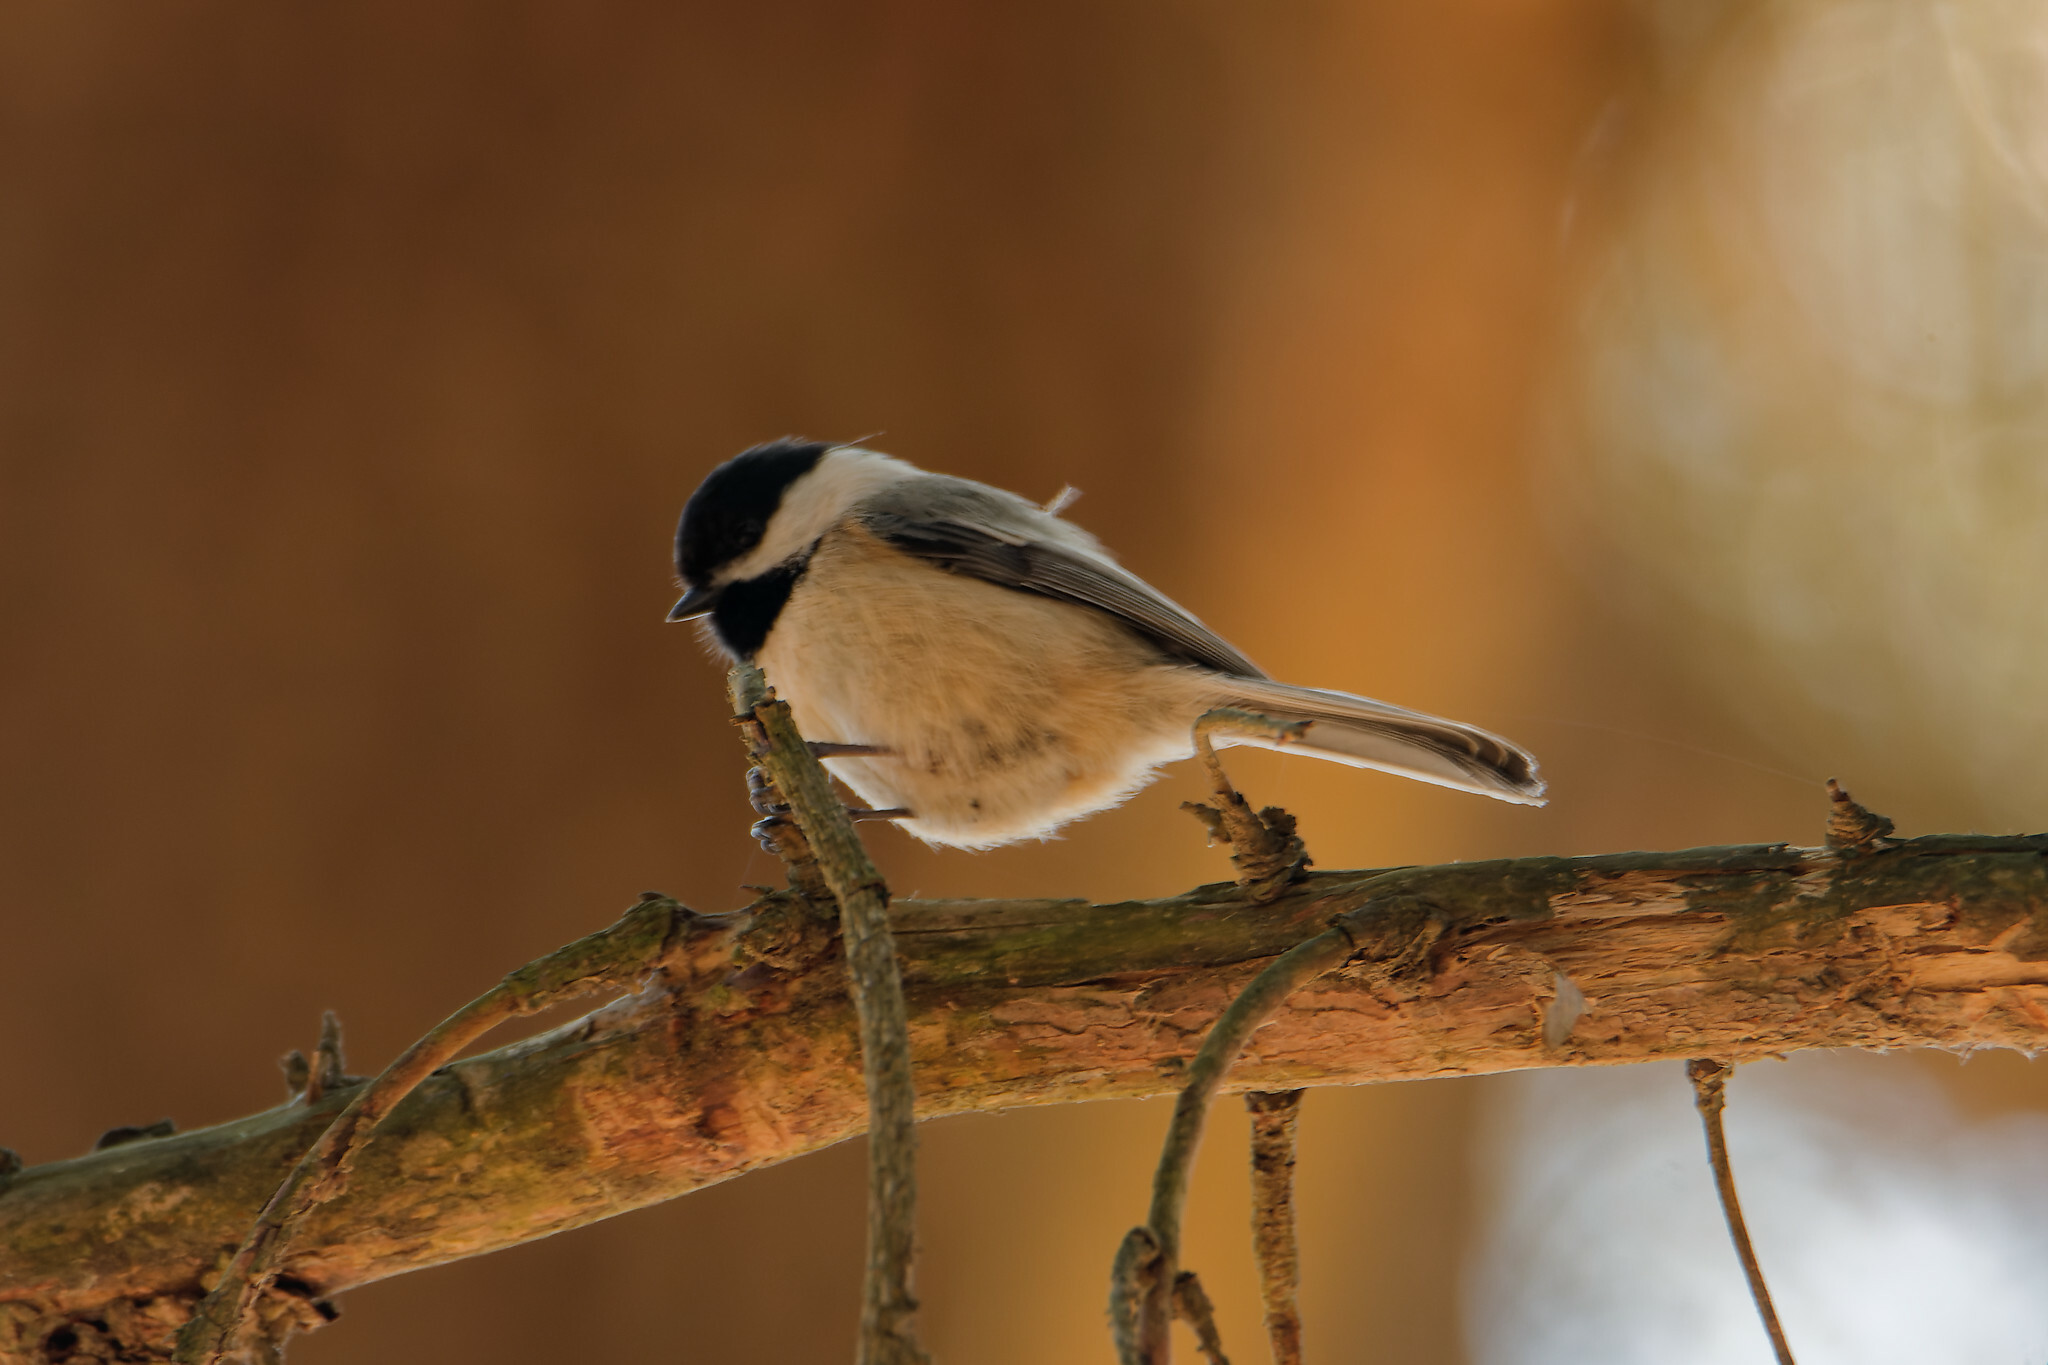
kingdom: Animalia
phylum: Chordata
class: Aves
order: Passeriformes
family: Paridae
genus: Poecile
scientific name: Poecile atricapillus
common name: Black-capped chickadee
